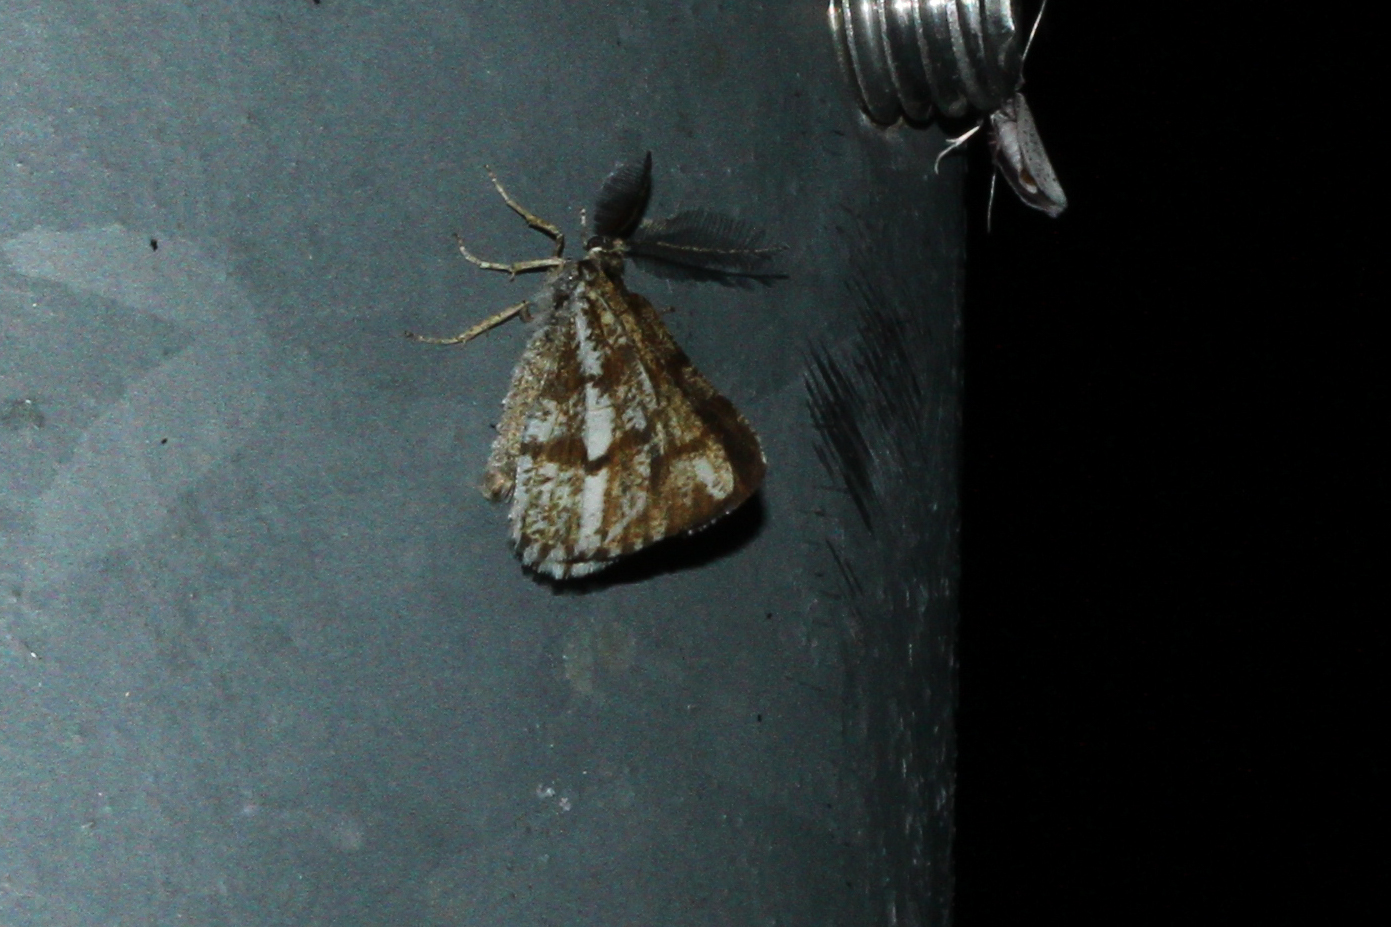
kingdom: Animalia
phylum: Arthropoda
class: Insecta
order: Lepidoptera
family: Geometridae
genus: Bupalus
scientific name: Bupalus piniaria
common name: Bordered white
